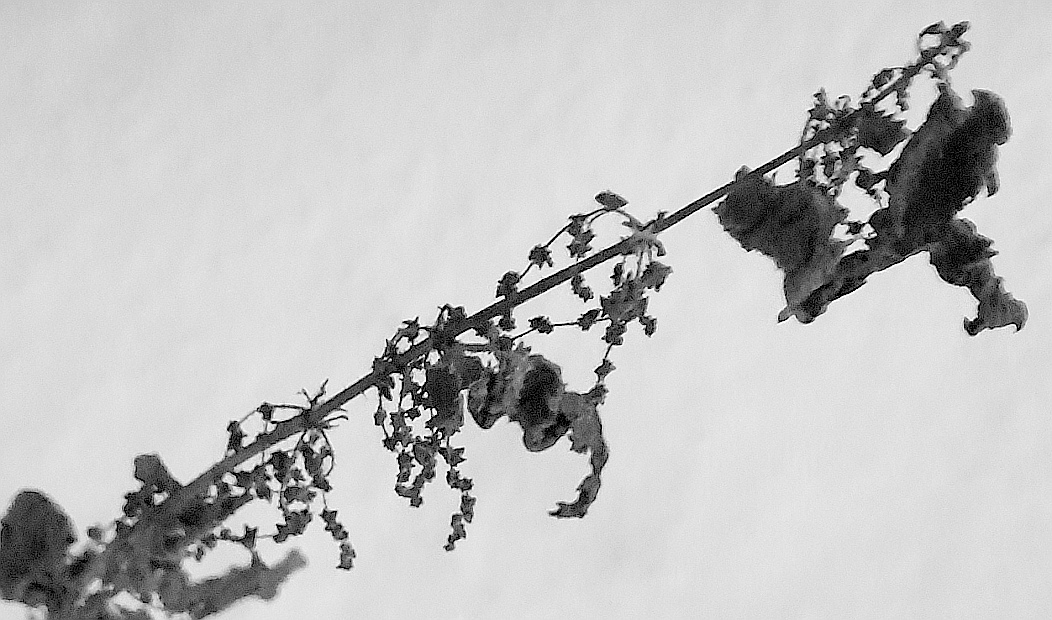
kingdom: Plantae
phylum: Tracheophyta
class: Magnoliopsida
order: Rosales
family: Urticaceae
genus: Urtica
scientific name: Urtica dioica
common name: Common nettle
